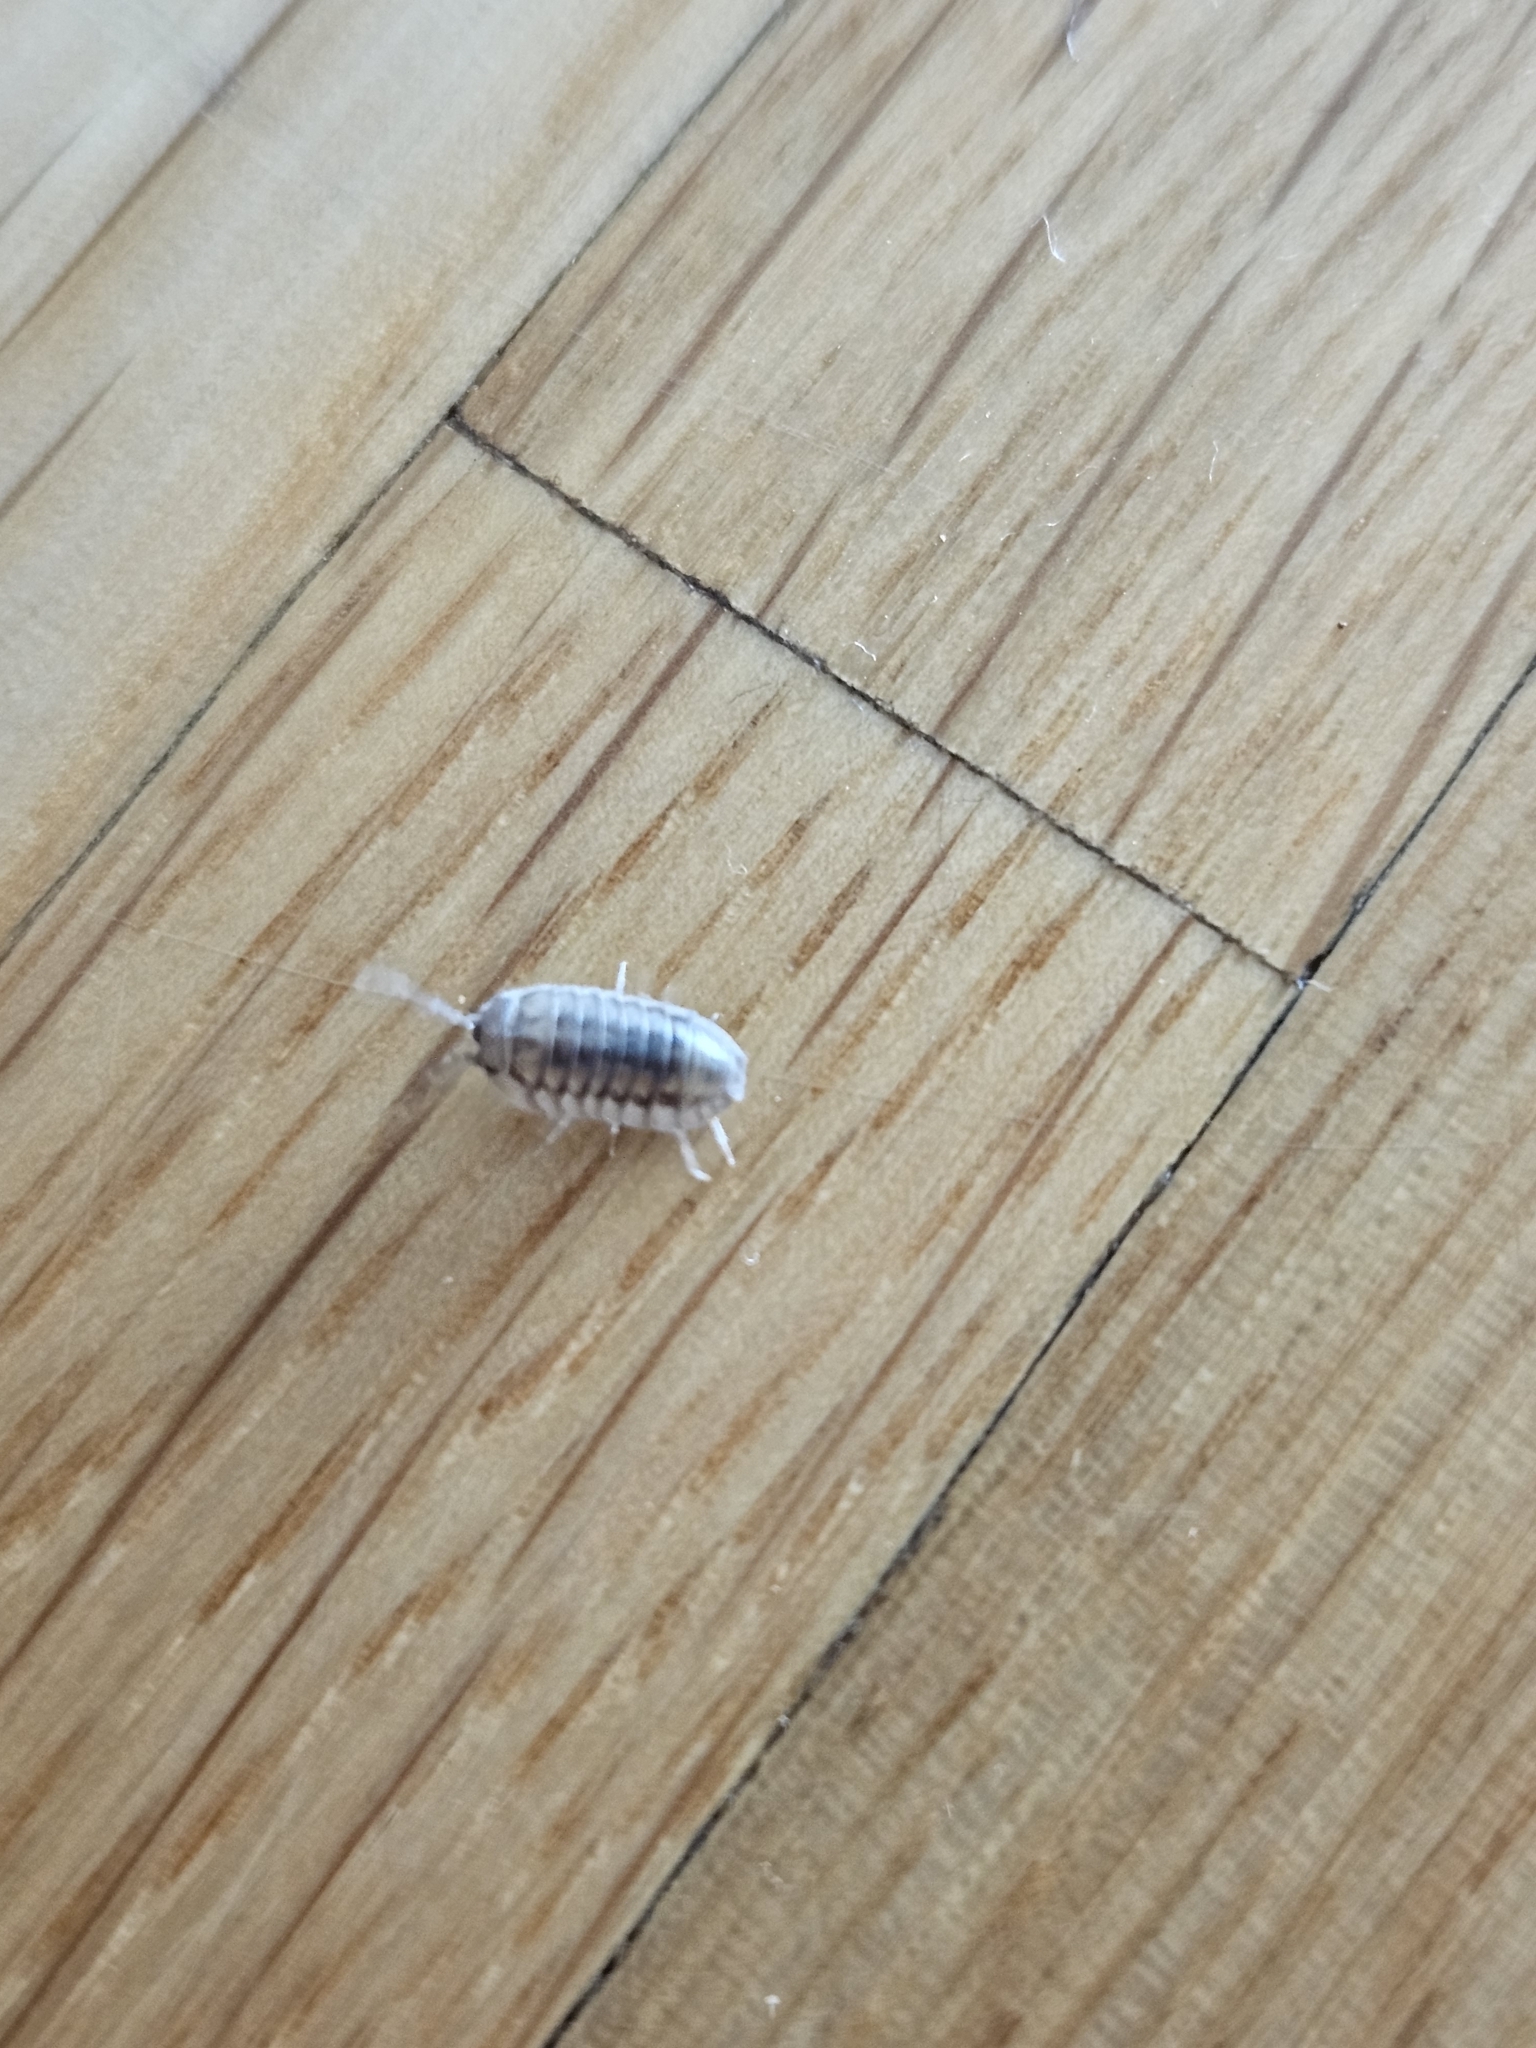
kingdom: Animalia
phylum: Arthropoda
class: Malacostraca
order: Isopoda
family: Armadillidiidae
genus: Armadillidium
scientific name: Armadillidium nasatum
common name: Isopod
